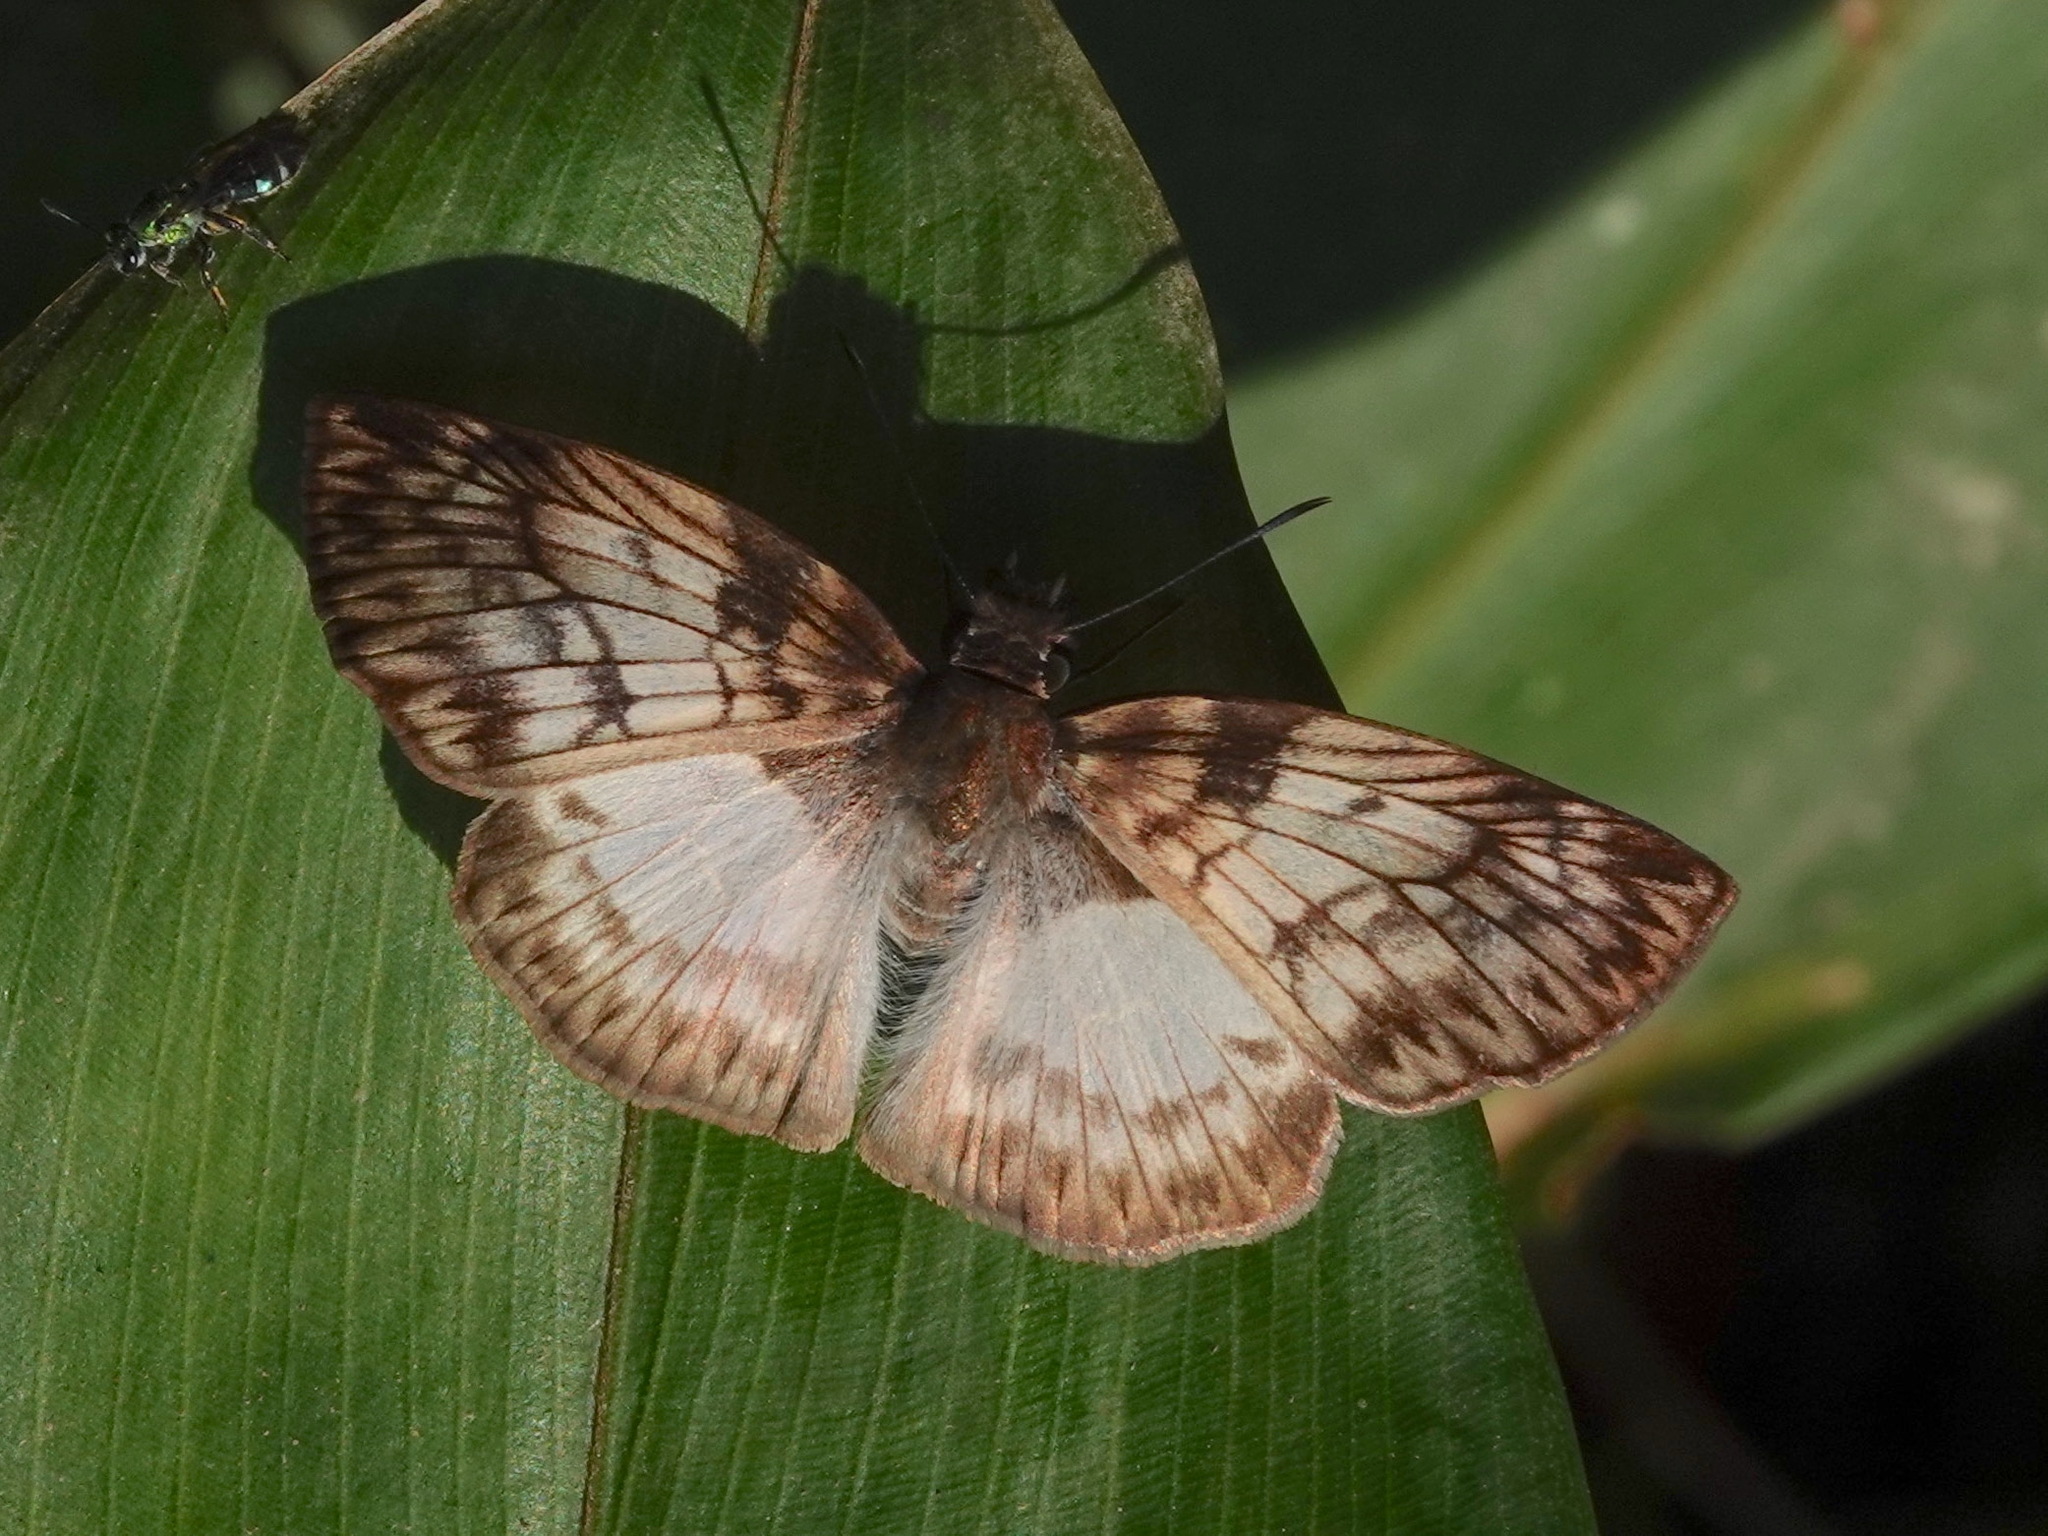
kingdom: Animalia
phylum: Arthropoda
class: Insecta
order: Lepidoptera
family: Hesperiidae
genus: Mylon
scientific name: Mylon maimon
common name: Common mylon
